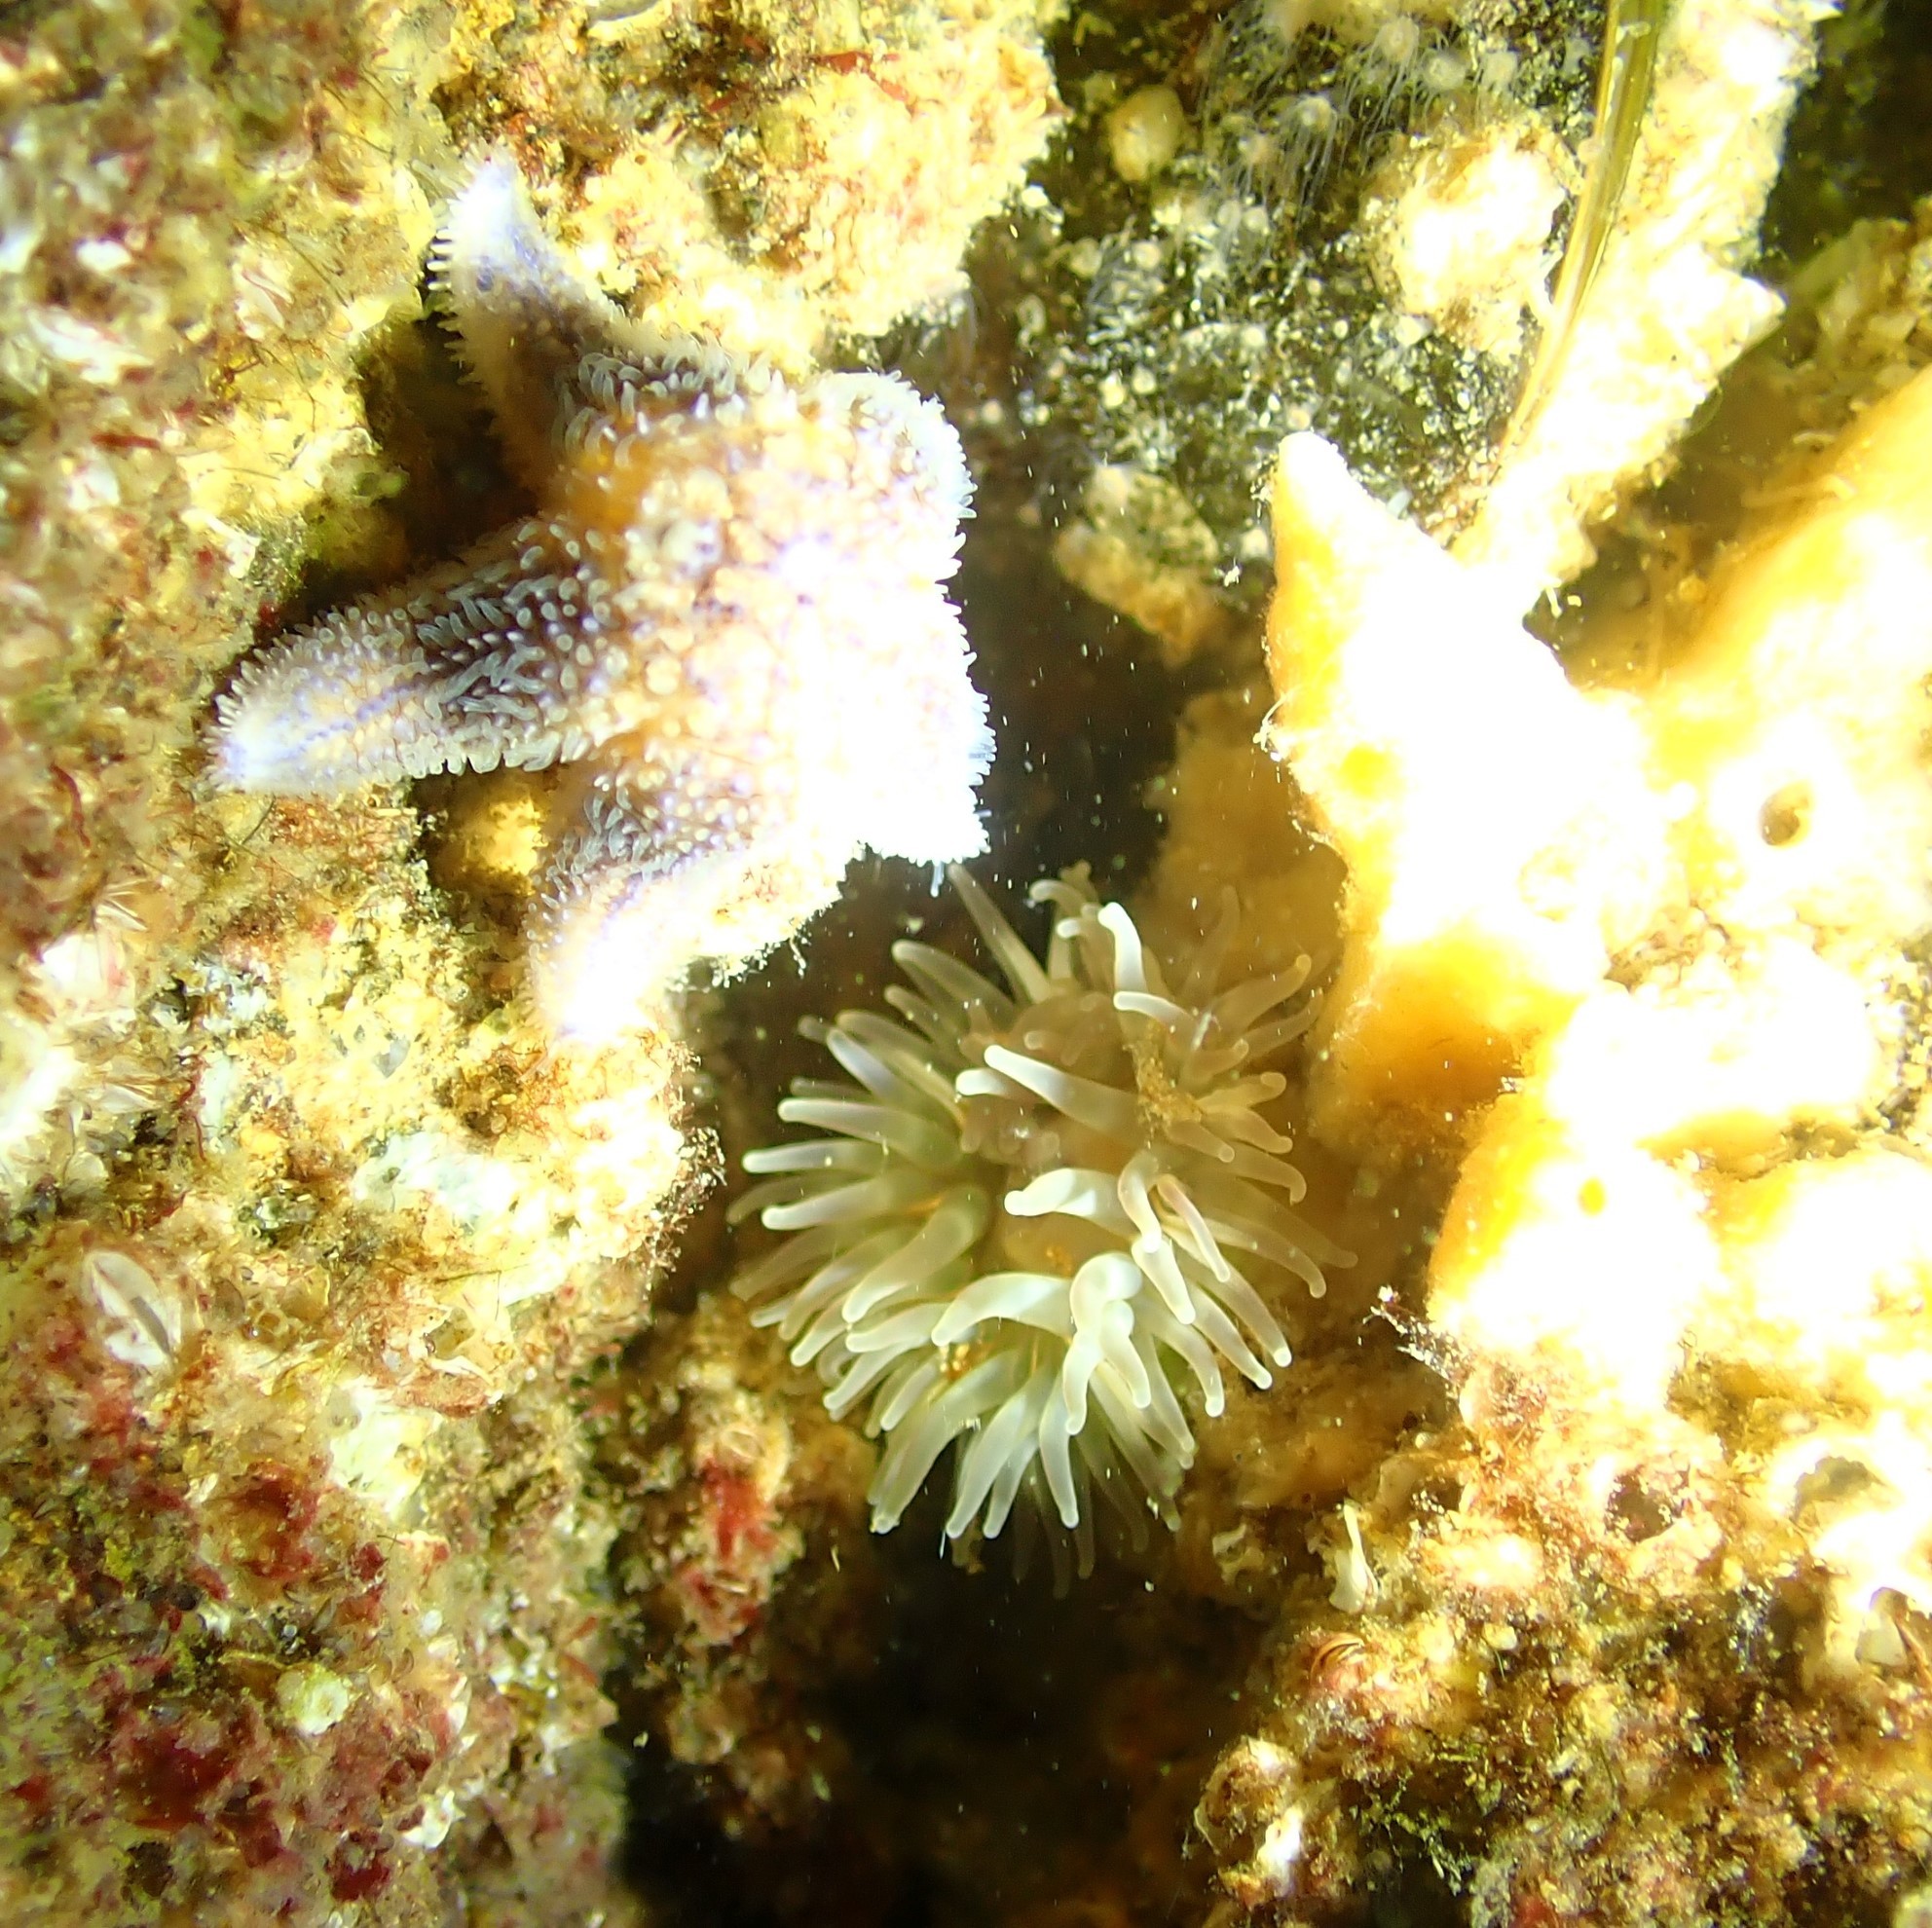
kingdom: Animalia
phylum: Cnidaria
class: Anthozoa
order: Actiniaria
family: Actiniidae
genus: Urticina
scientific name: Urticina felina
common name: Dahlia anemone
